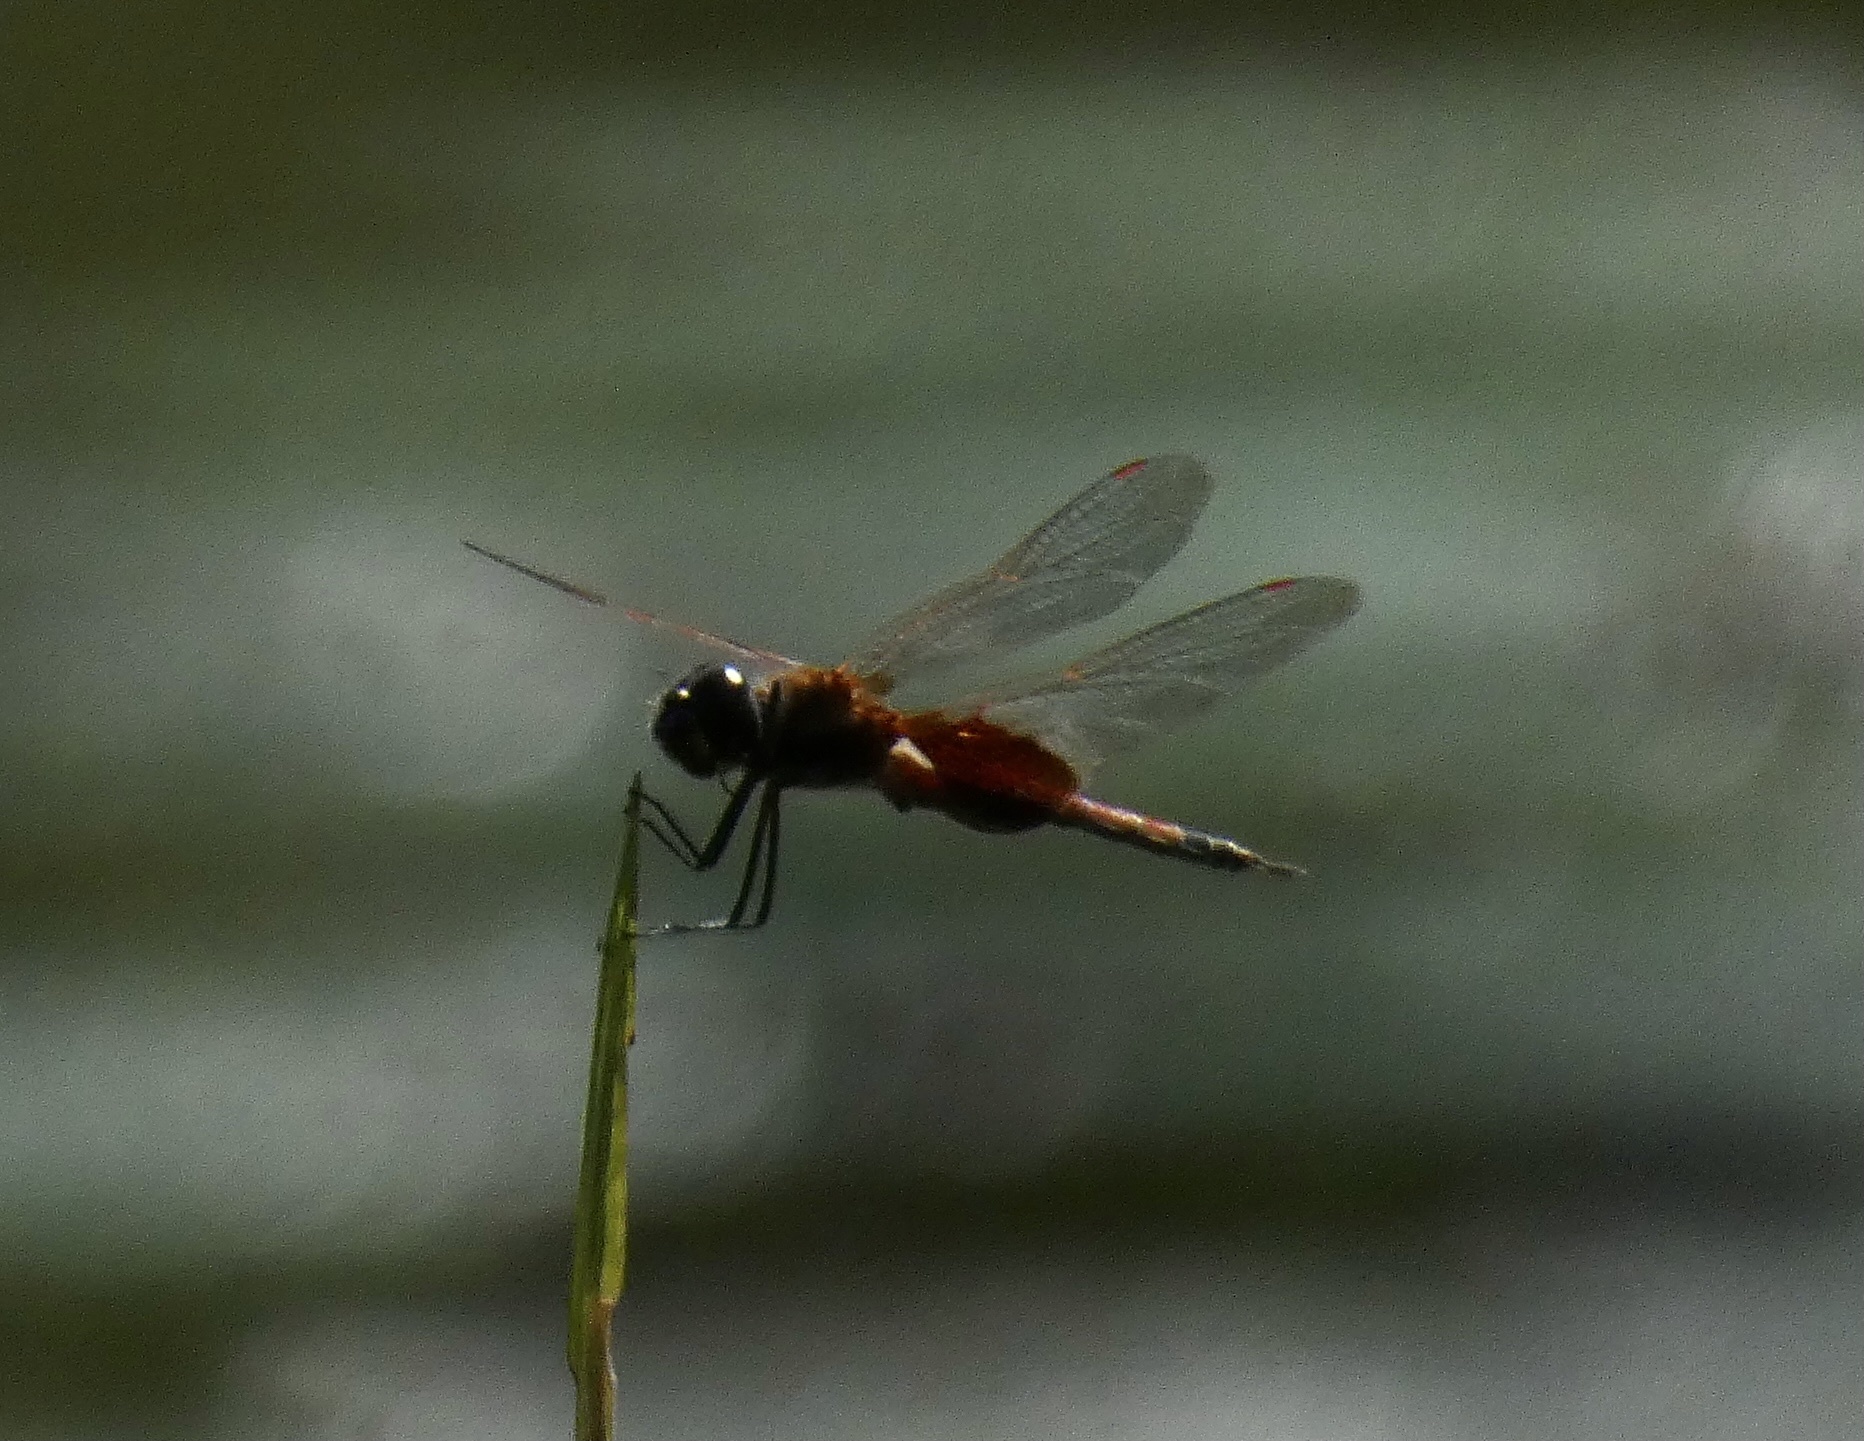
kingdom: Animalia
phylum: Arthropoda
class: Insecta
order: Odonata
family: Libellulidae
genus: Tramea
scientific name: Tramea rustica
